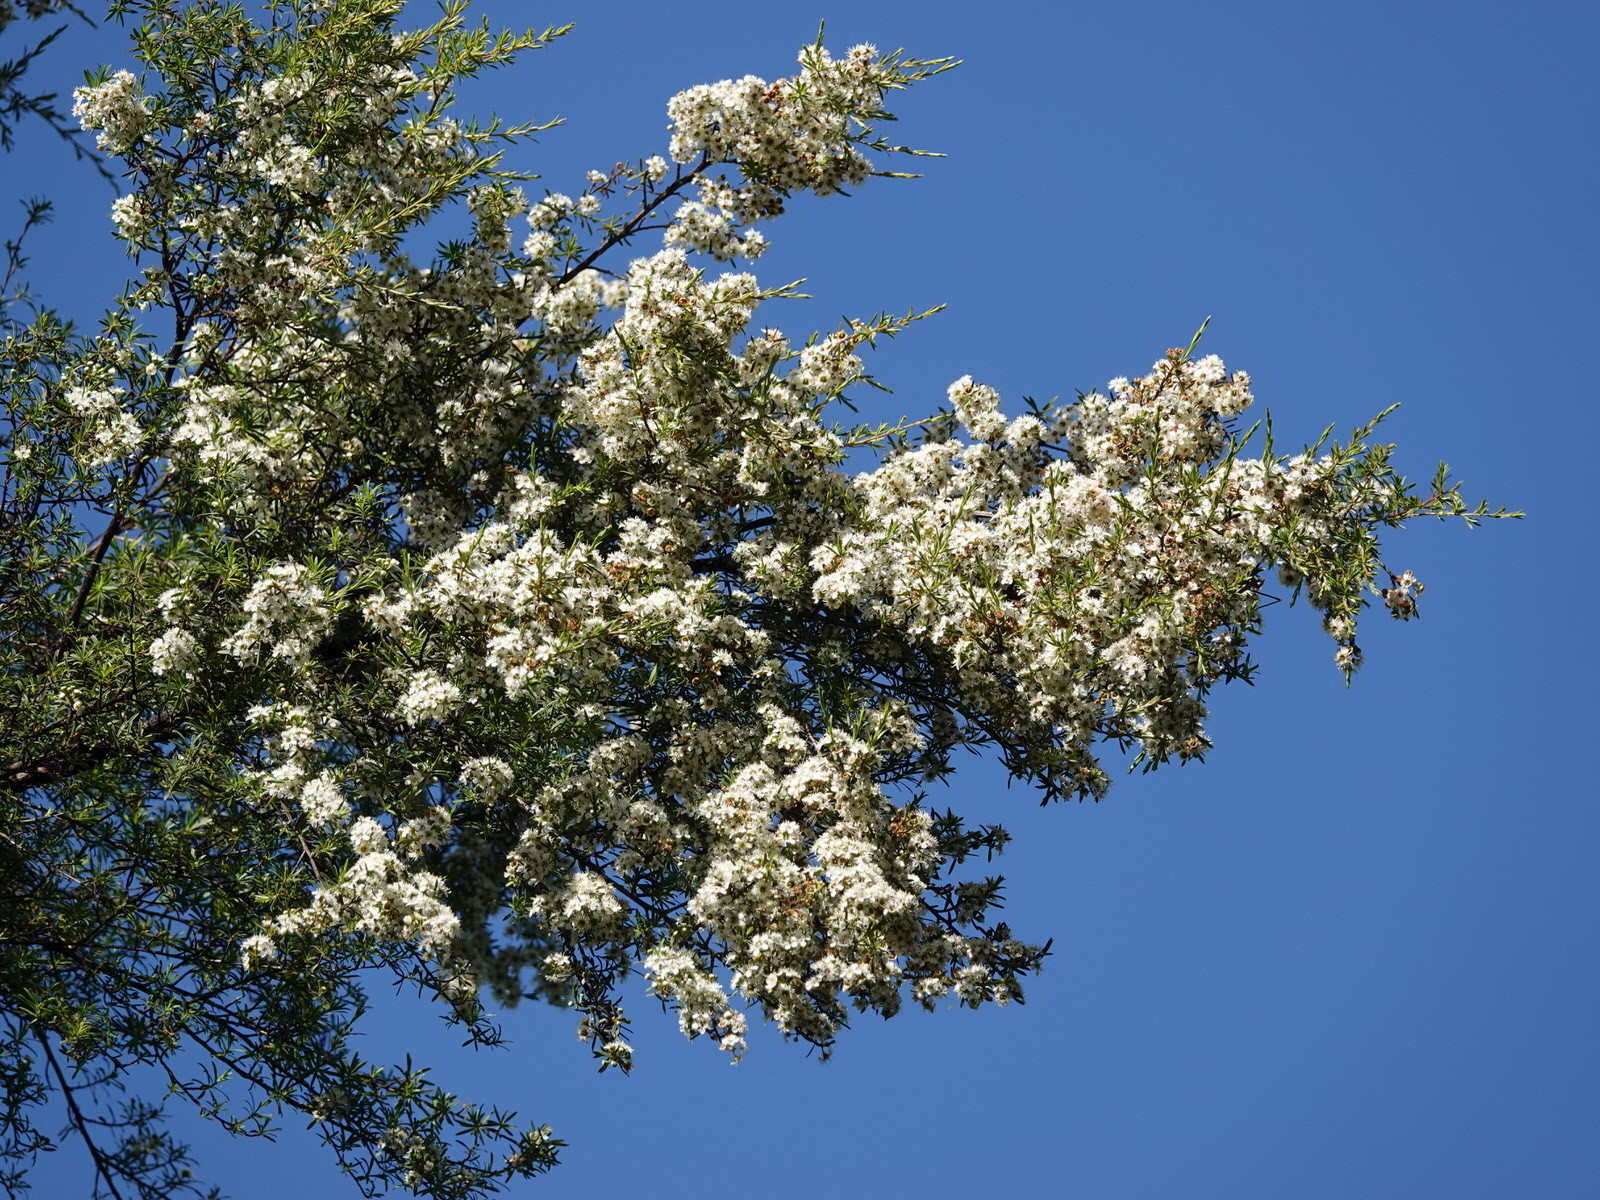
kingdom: Plantae
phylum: Tracheophyta
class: Magnoliopsida
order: Myrtales
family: Myrtaceae
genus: Kunzea
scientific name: Kunzea robusta
